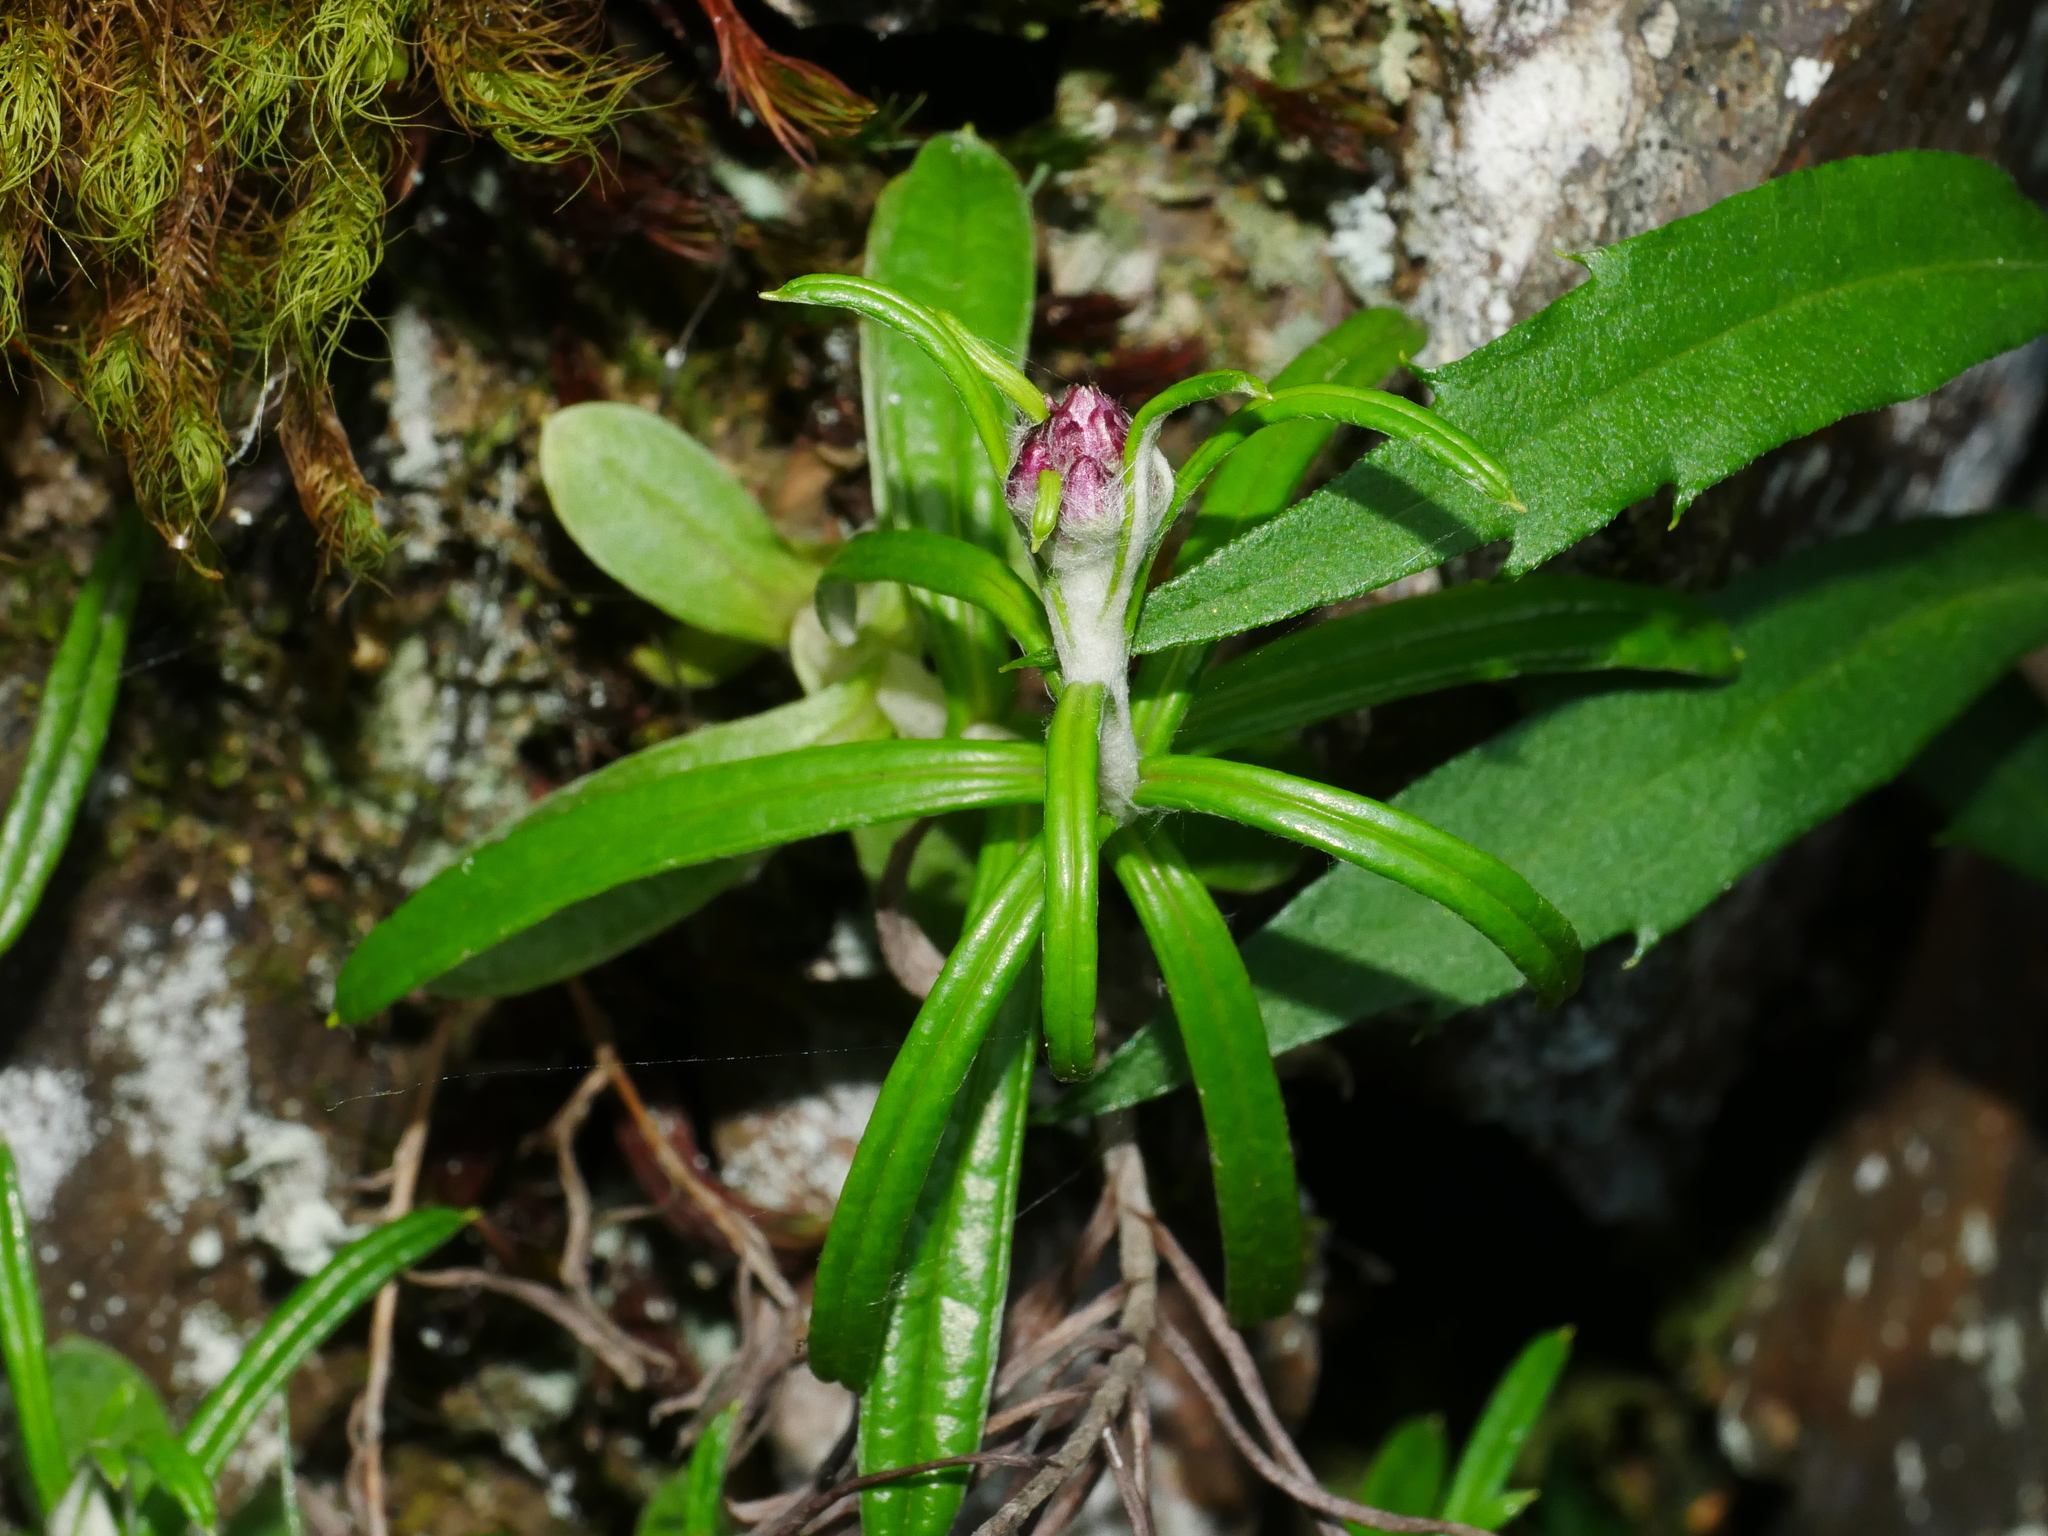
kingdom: Plantae
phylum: Tracheophyta
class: Magnoliopsida
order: Asterales
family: Asteraceae
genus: Anaphalis
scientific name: Anaphalis morrisonicola
